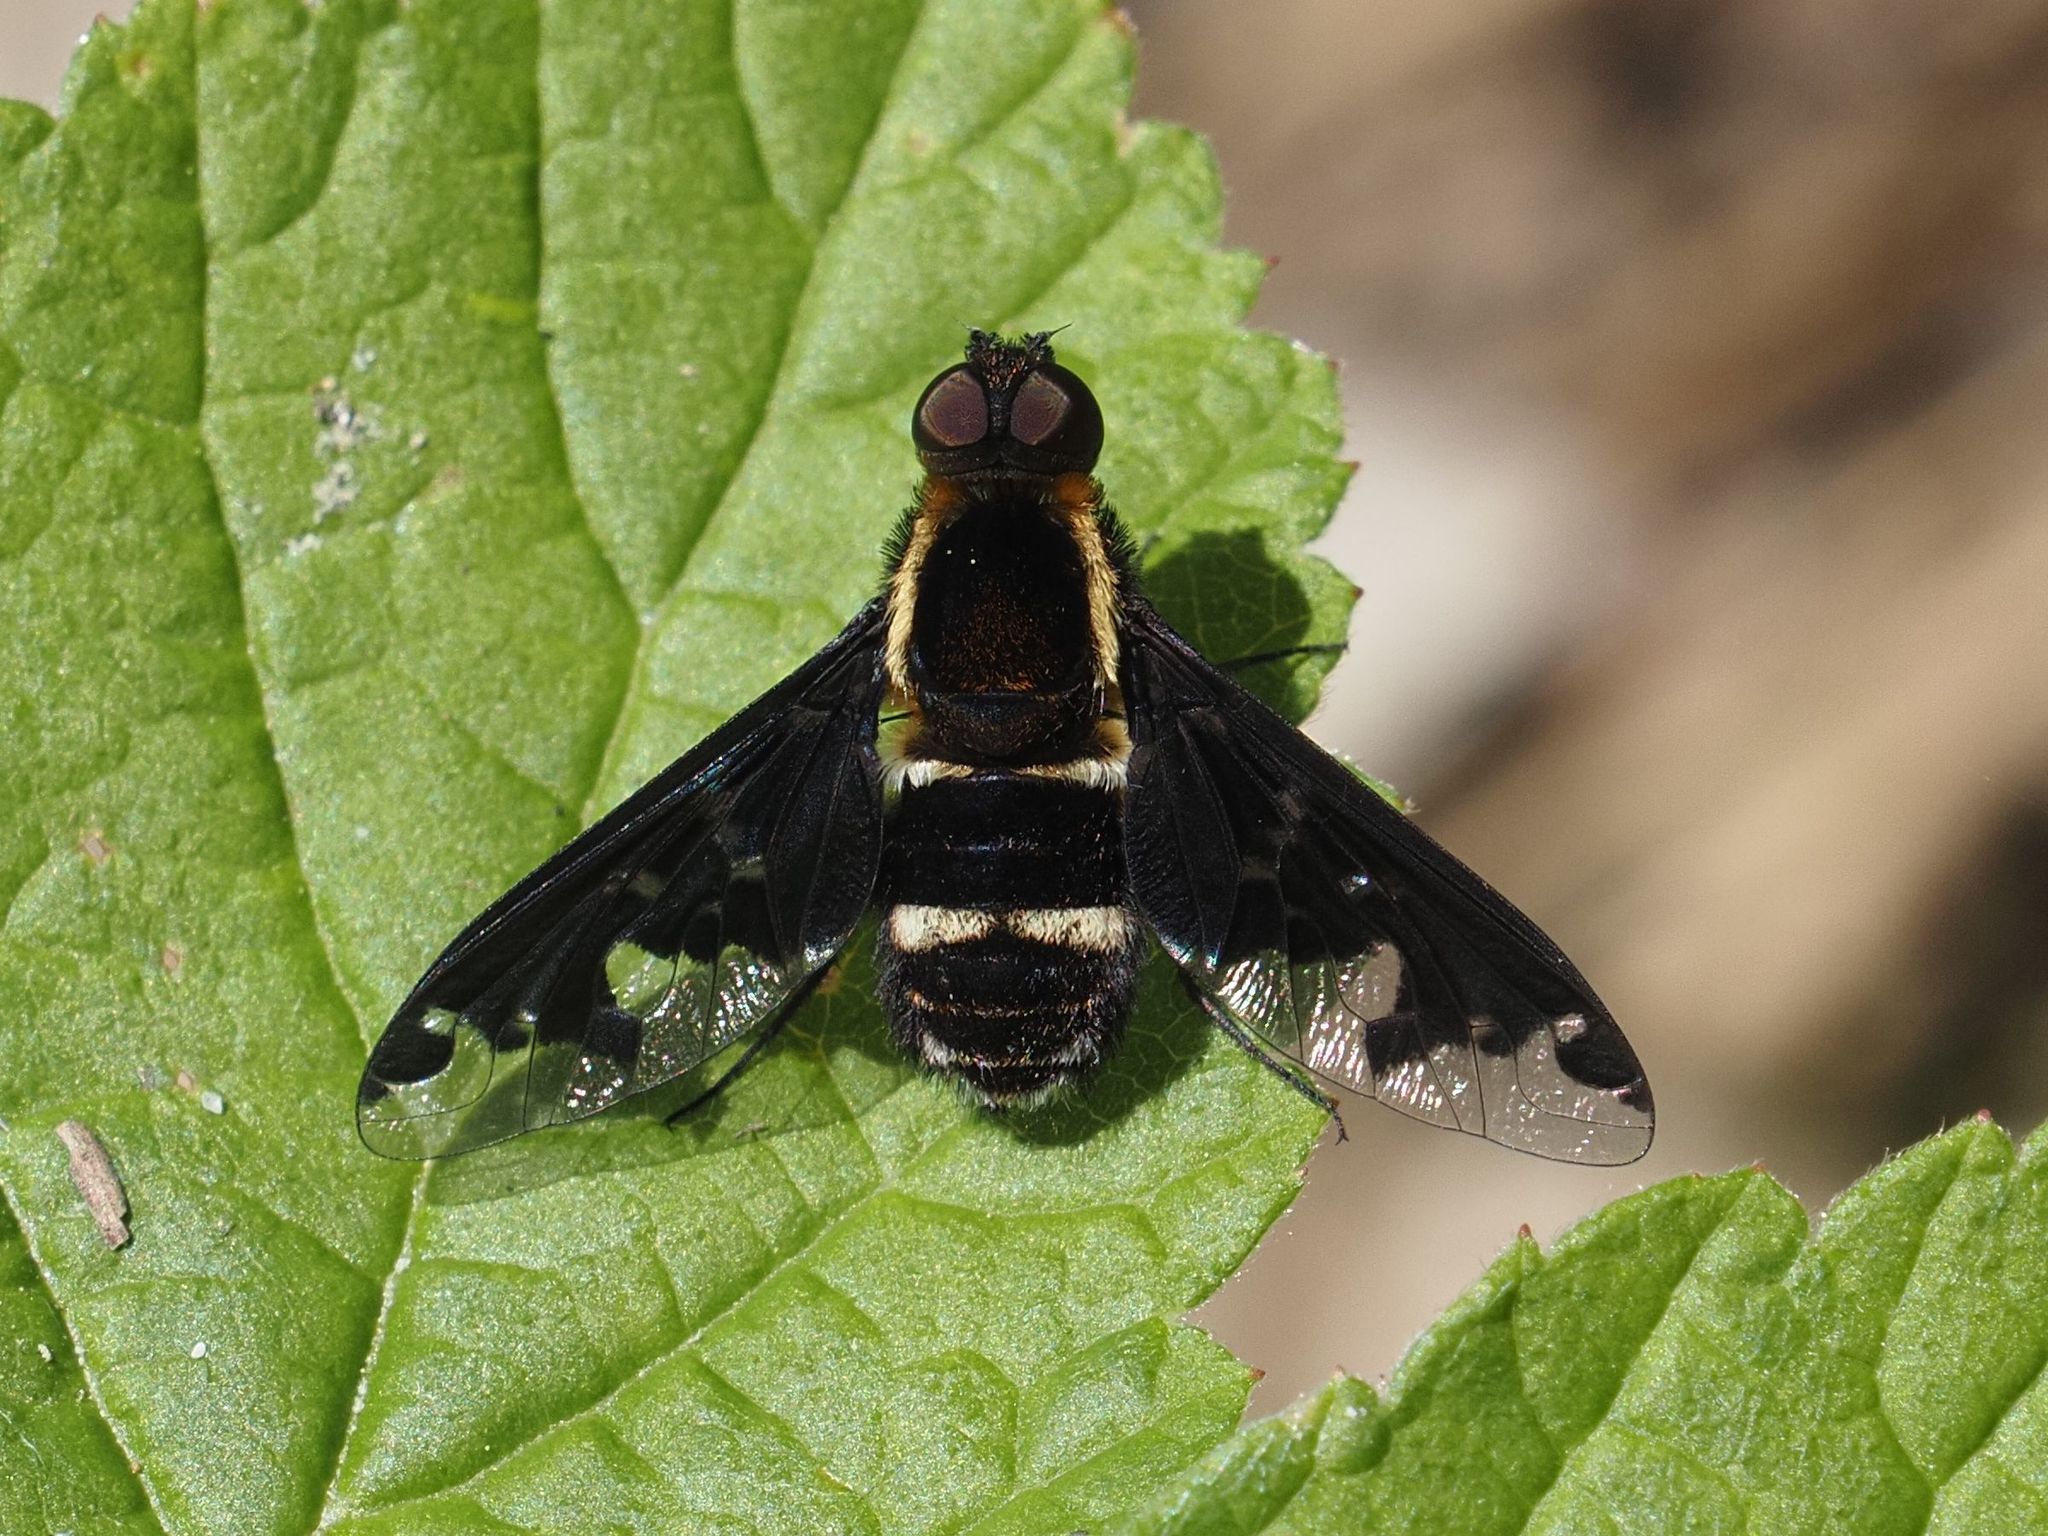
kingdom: Animalia
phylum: Arthropoda
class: Insecta
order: Diptera
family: Bombyliidae
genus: Hemipenthes
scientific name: Hemipenthes maura
